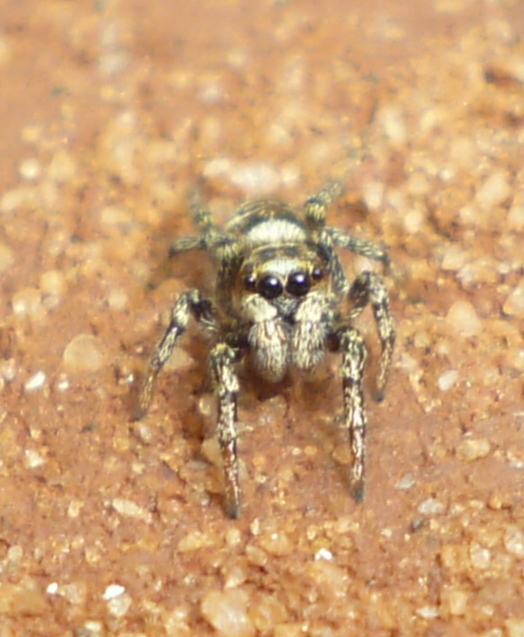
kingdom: Animalia
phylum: Arthropoda
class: Arachnida
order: Araneae
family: Salticidae
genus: Salticus
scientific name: Salticus scenicus
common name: Zebra jumper
